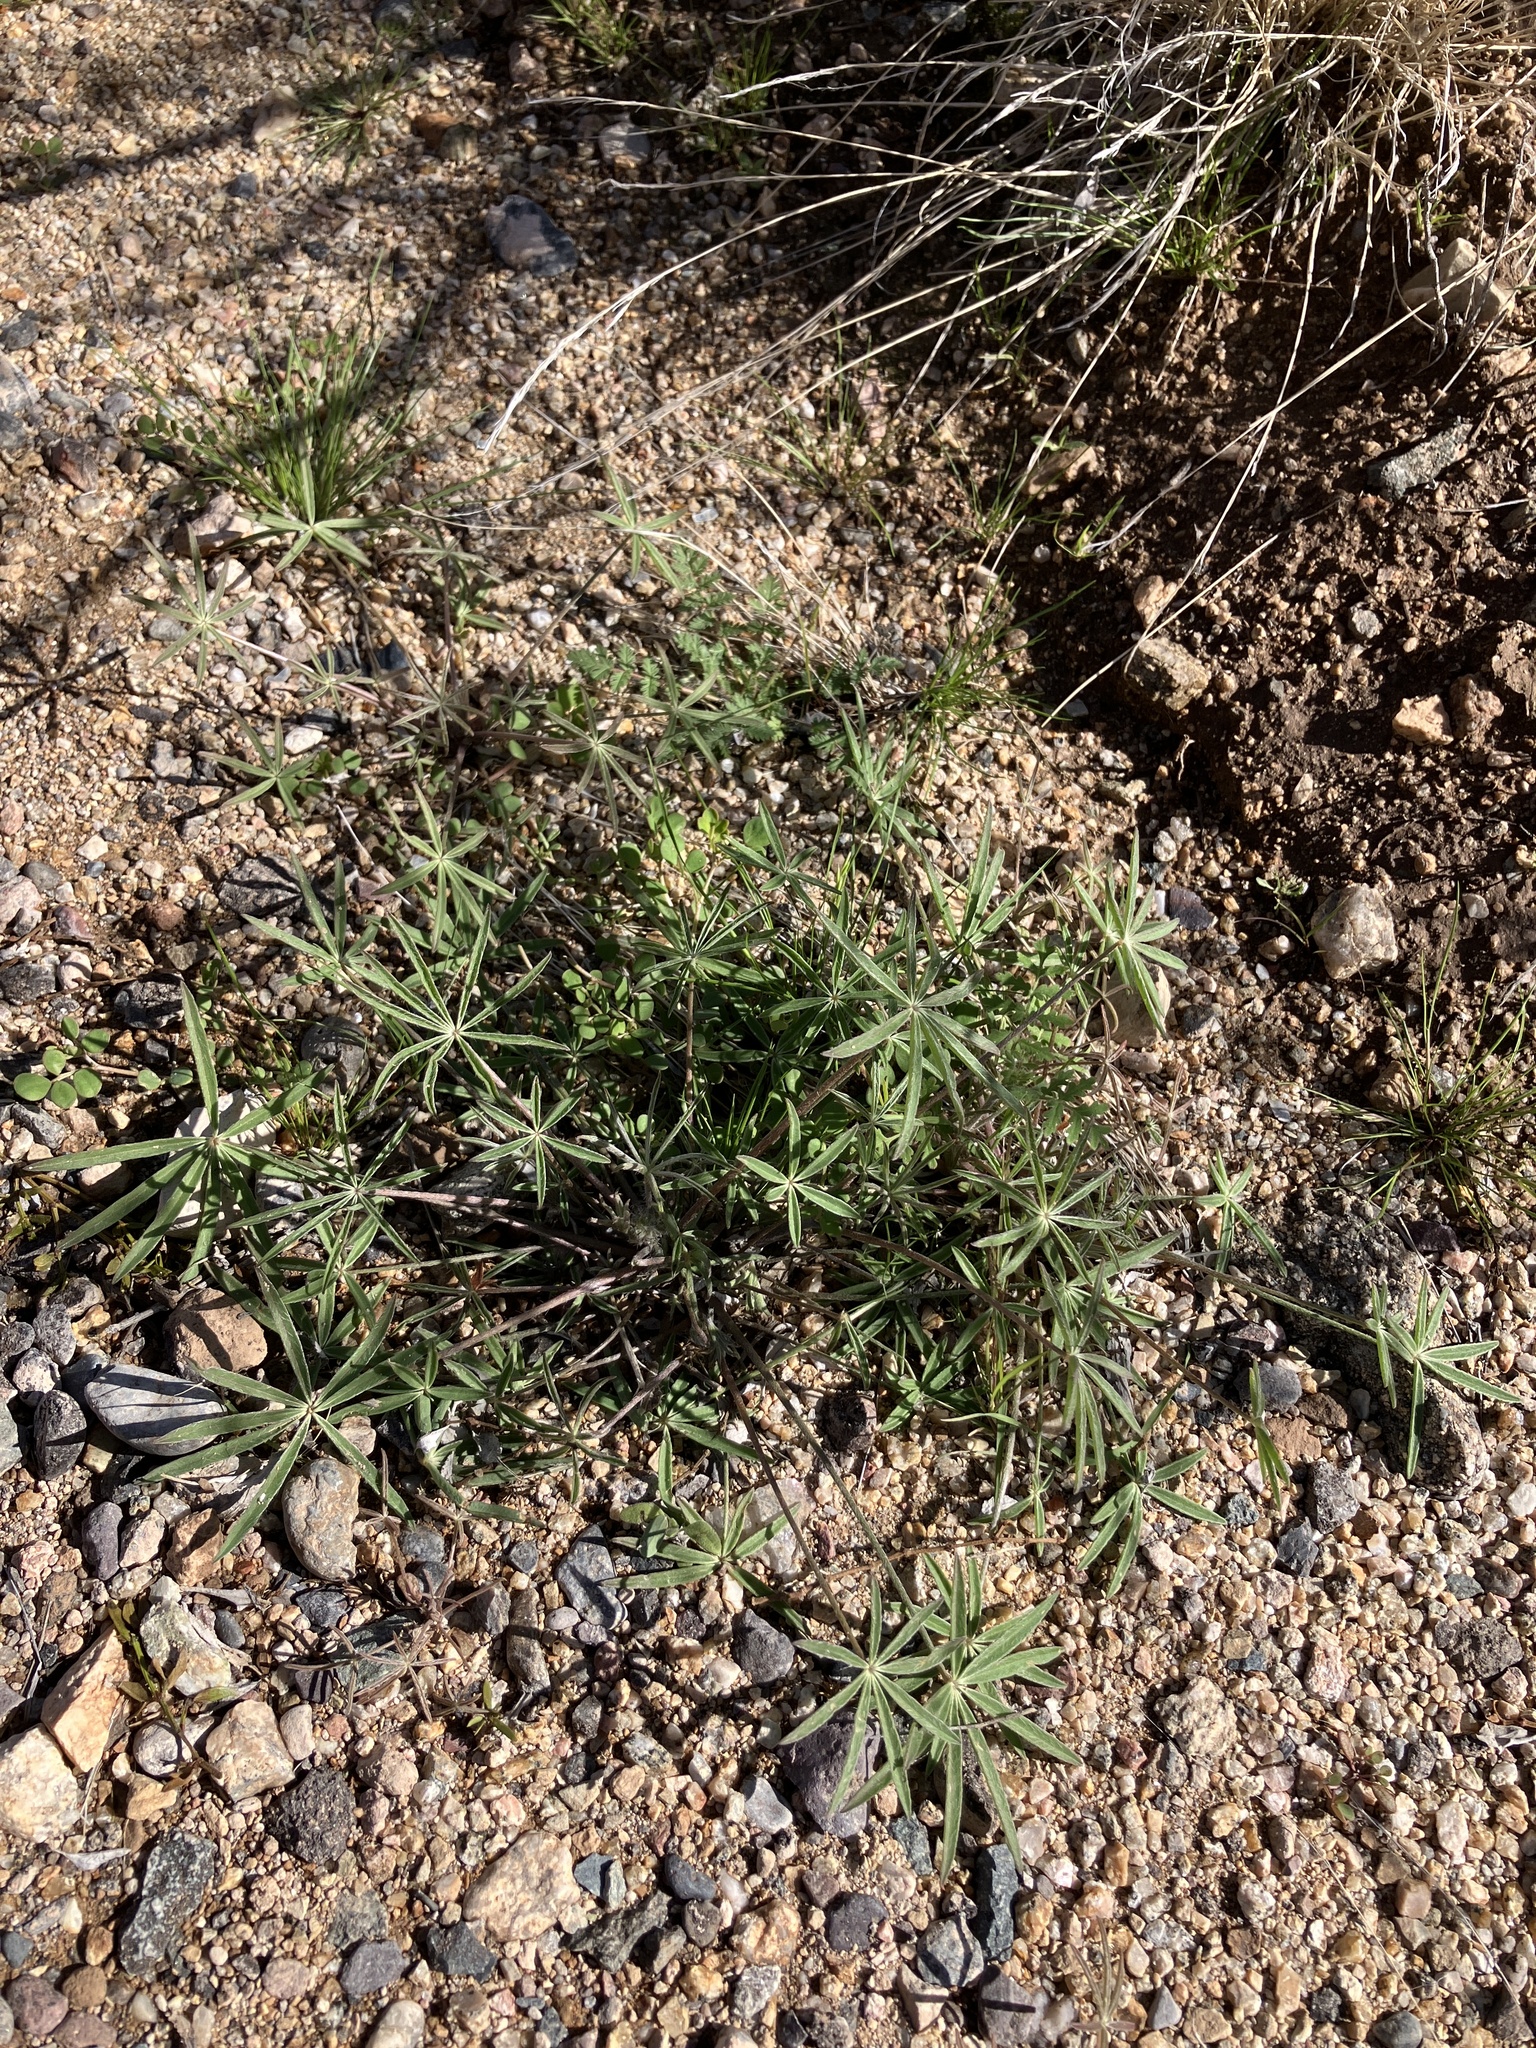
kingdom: Plantae
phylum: Tracheophyta
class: Magnoliopsida
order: Fabales
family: Fabaceae
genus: Lupinus
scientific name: Lupinus sparsiflorus
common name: Coulter's lupine
